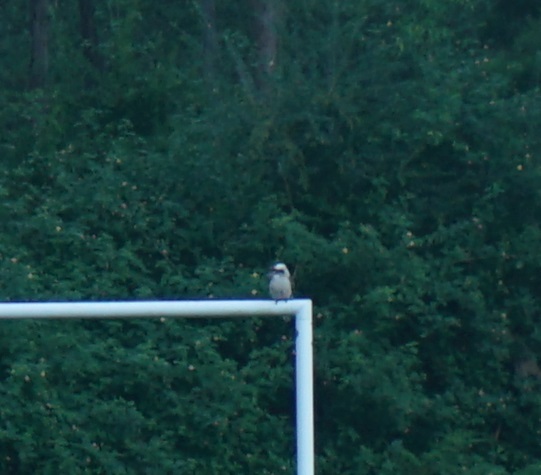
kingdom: Animalia
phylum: Chordata
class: Aves
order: Coraciiformes
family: Alcedinidae
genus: Dacelo
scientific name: Dacelo novaeguineae
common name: Laughing kookaburra
